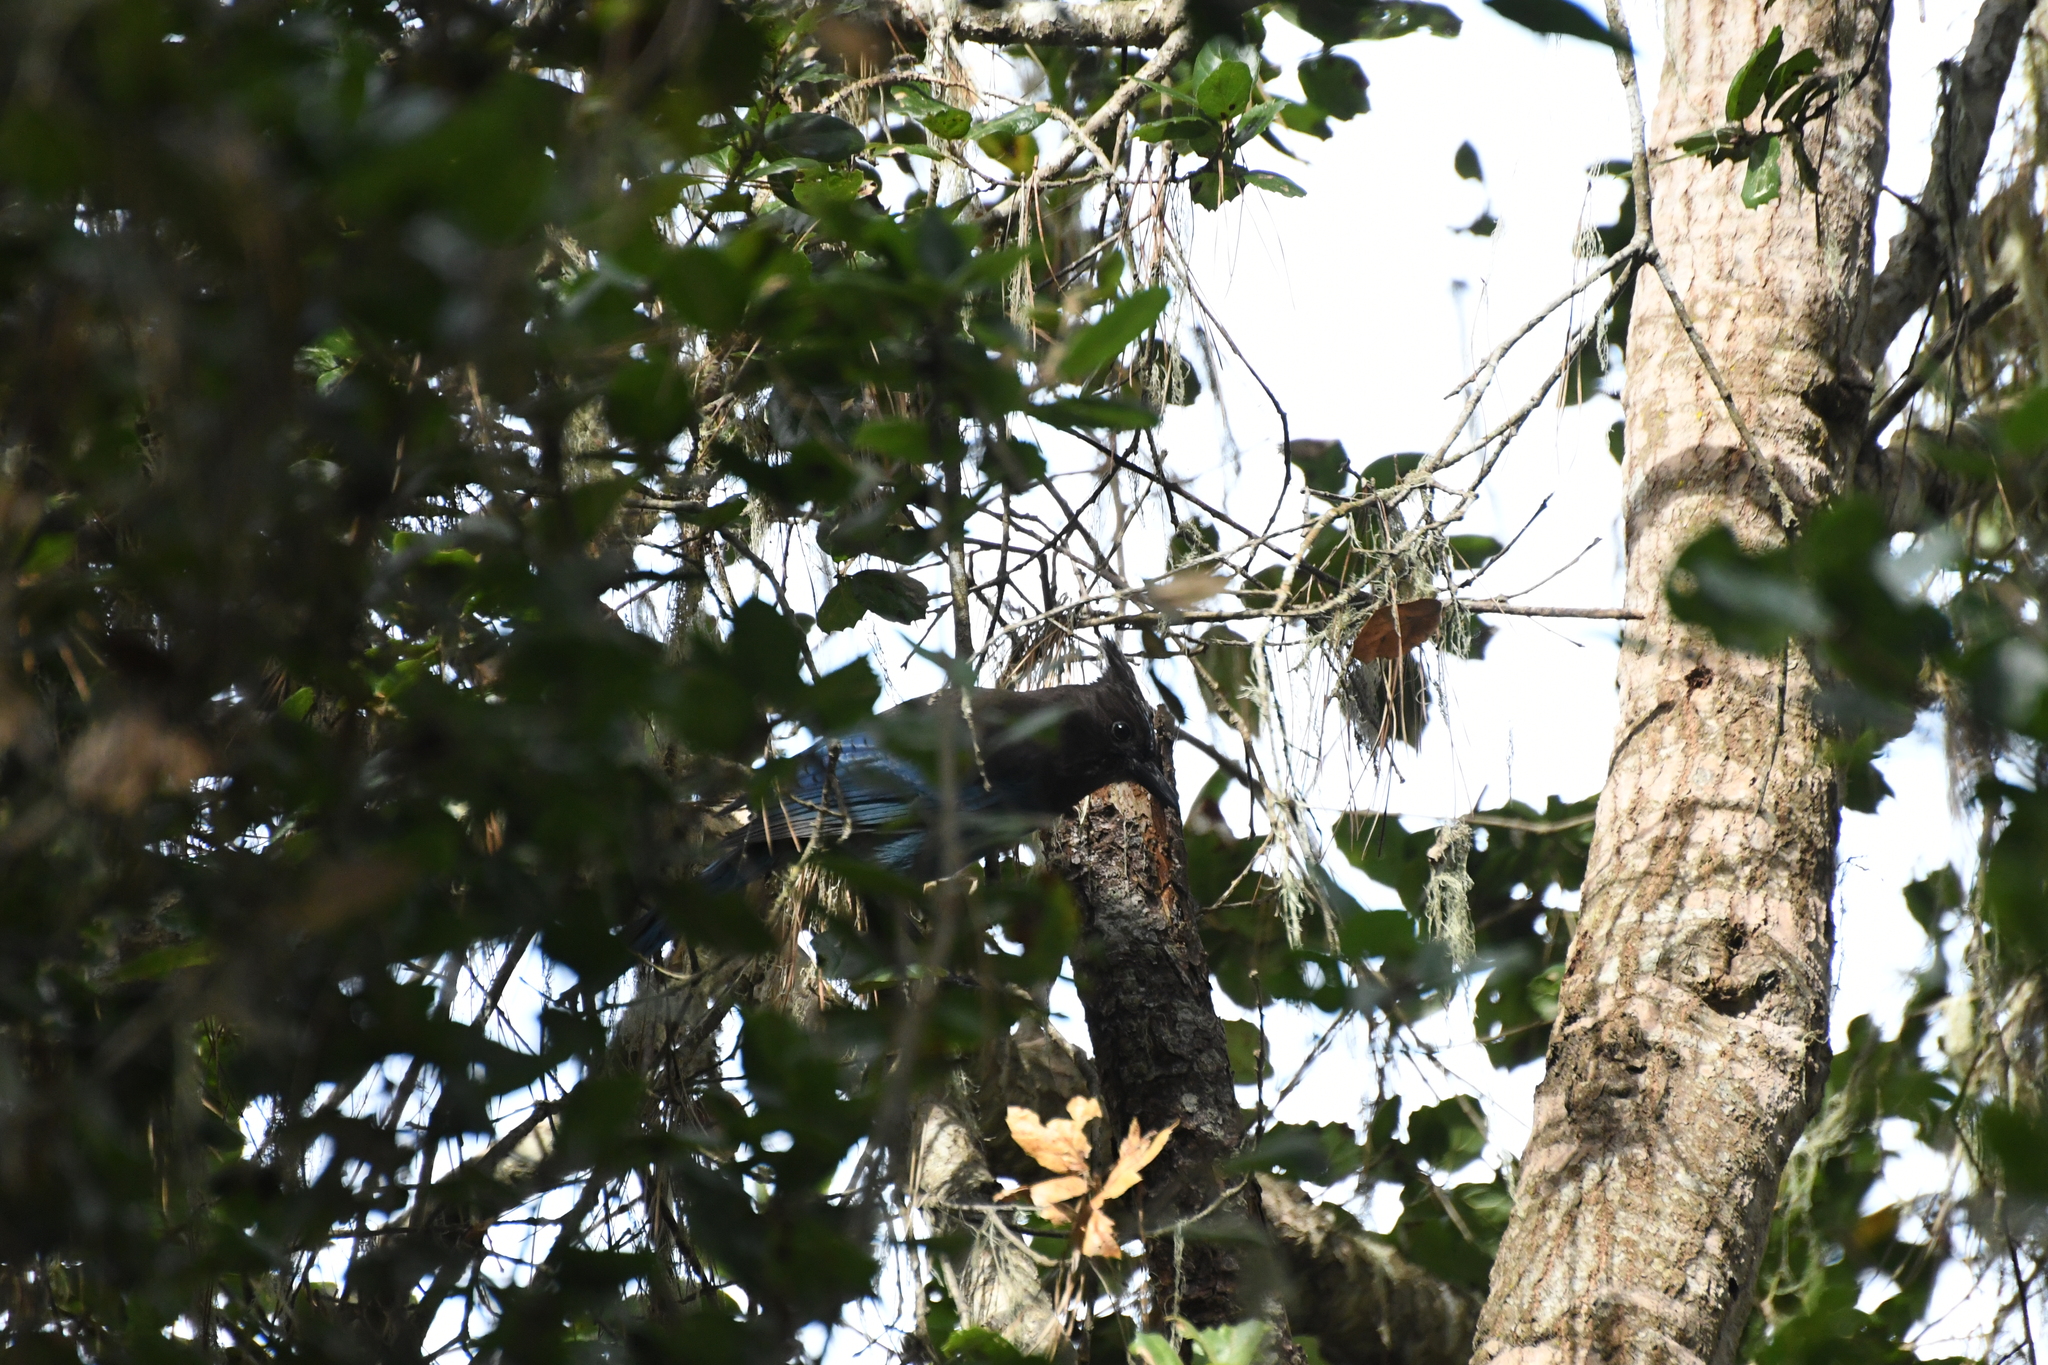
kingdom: Animalia
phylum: Chordata
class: Aves
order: Passeriformes
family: Corvidae
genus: Cyanocitta
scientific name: Cyanocitta stelleri
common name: Steller's jay
